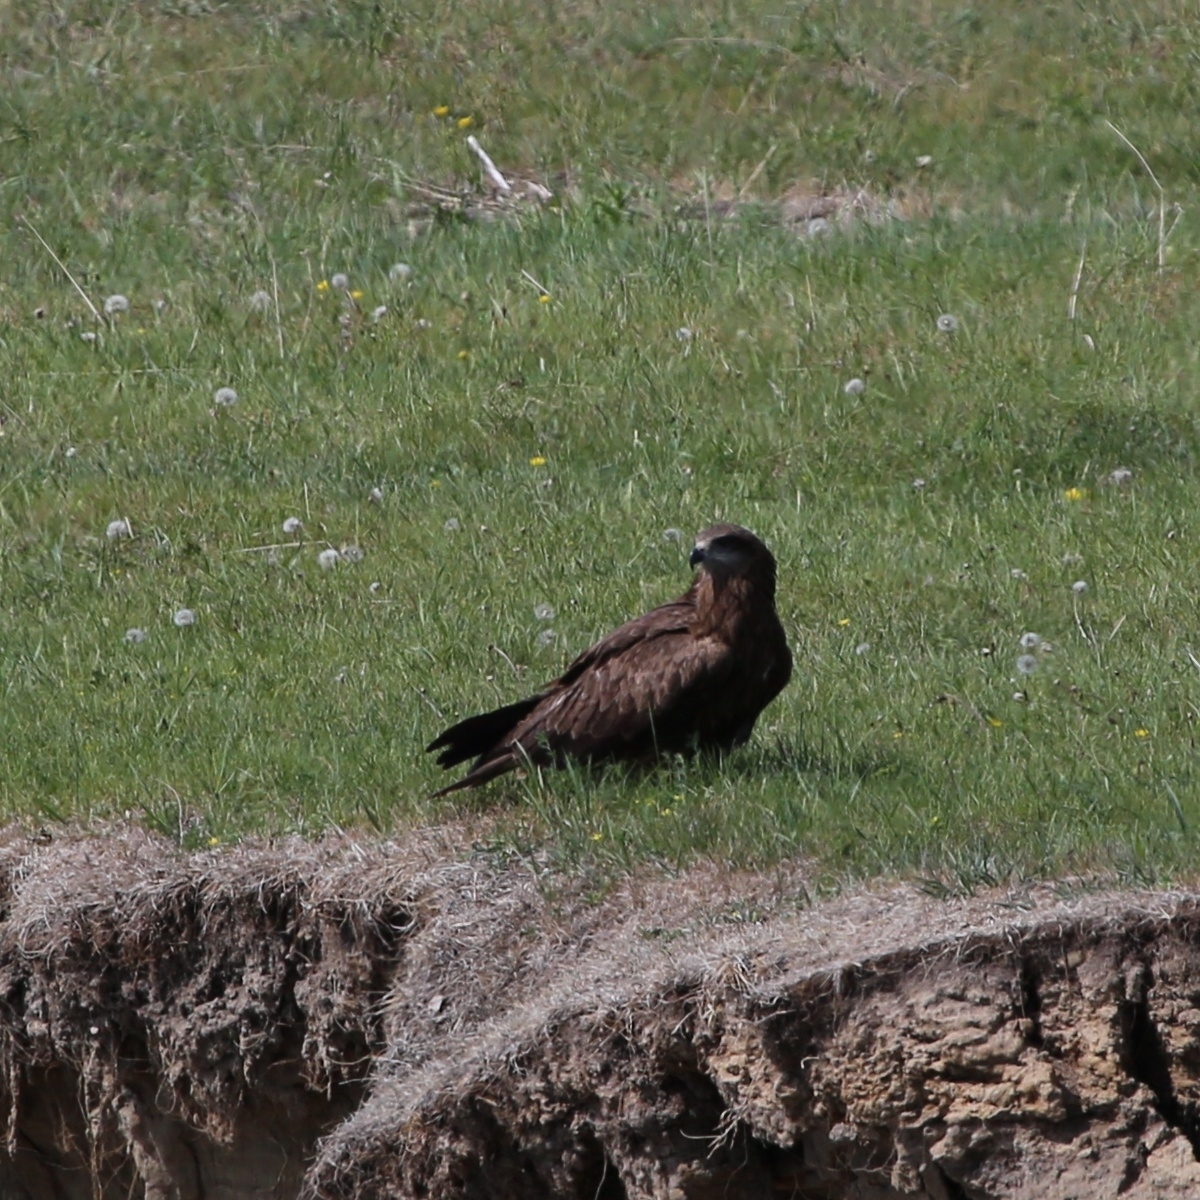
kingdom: Animalia
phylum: Chordata
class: Aves
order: Accipitriformes
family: Accipitridae
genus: Milvus
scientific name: Milvus migrans
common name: Black kite
